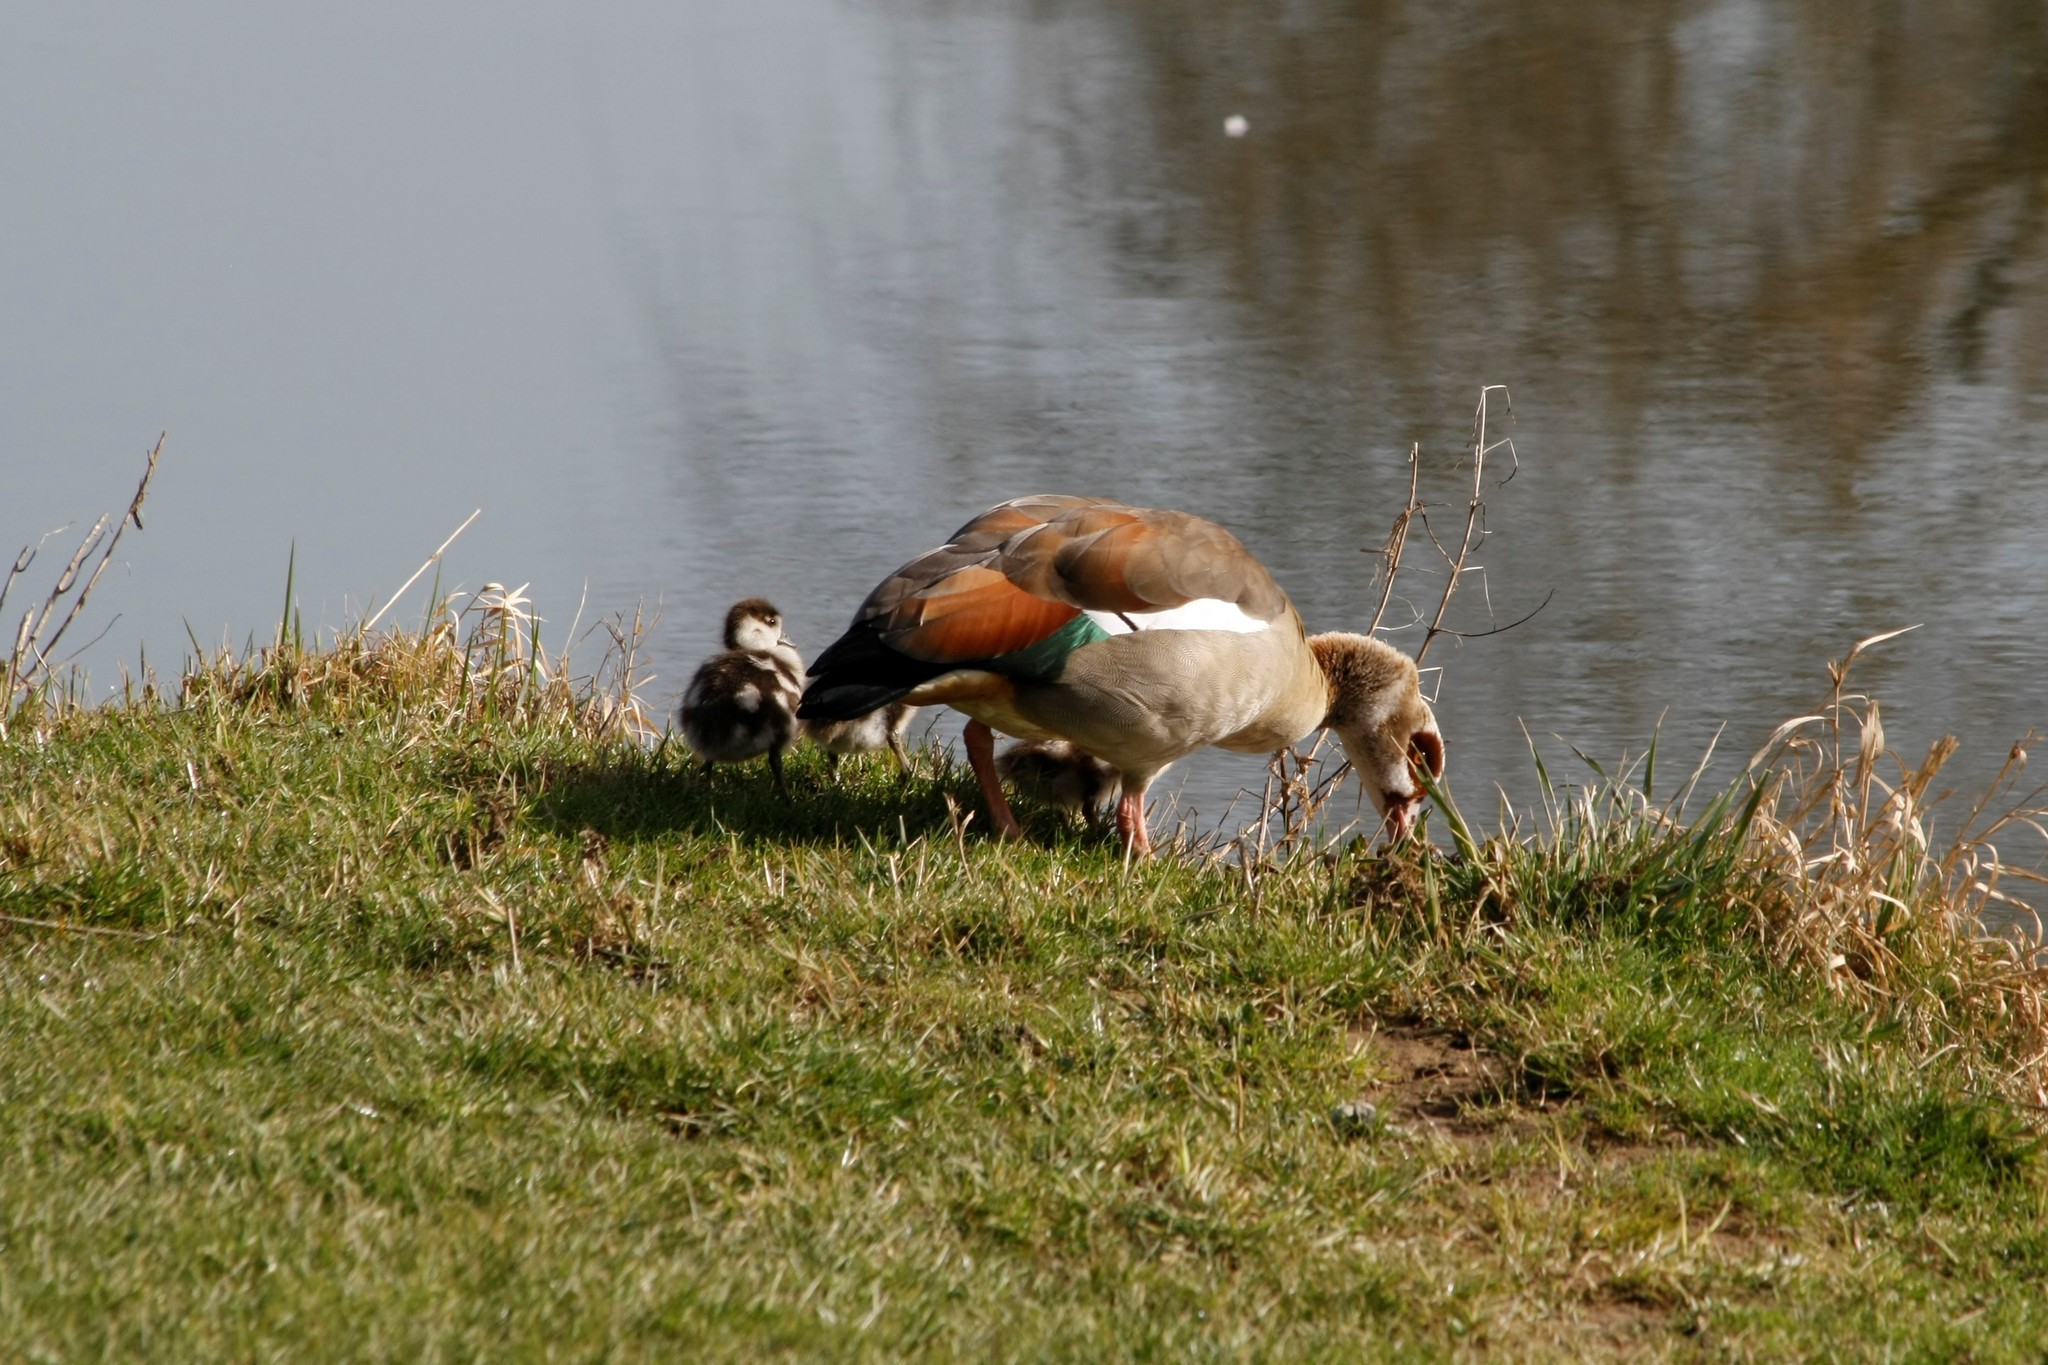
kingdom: Animalia
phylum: Chordata
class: Aves
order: Anseriformes
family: Anatidae
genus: Alopochen
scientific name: Alopochen aegyptiaca
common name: Egyptian goose
